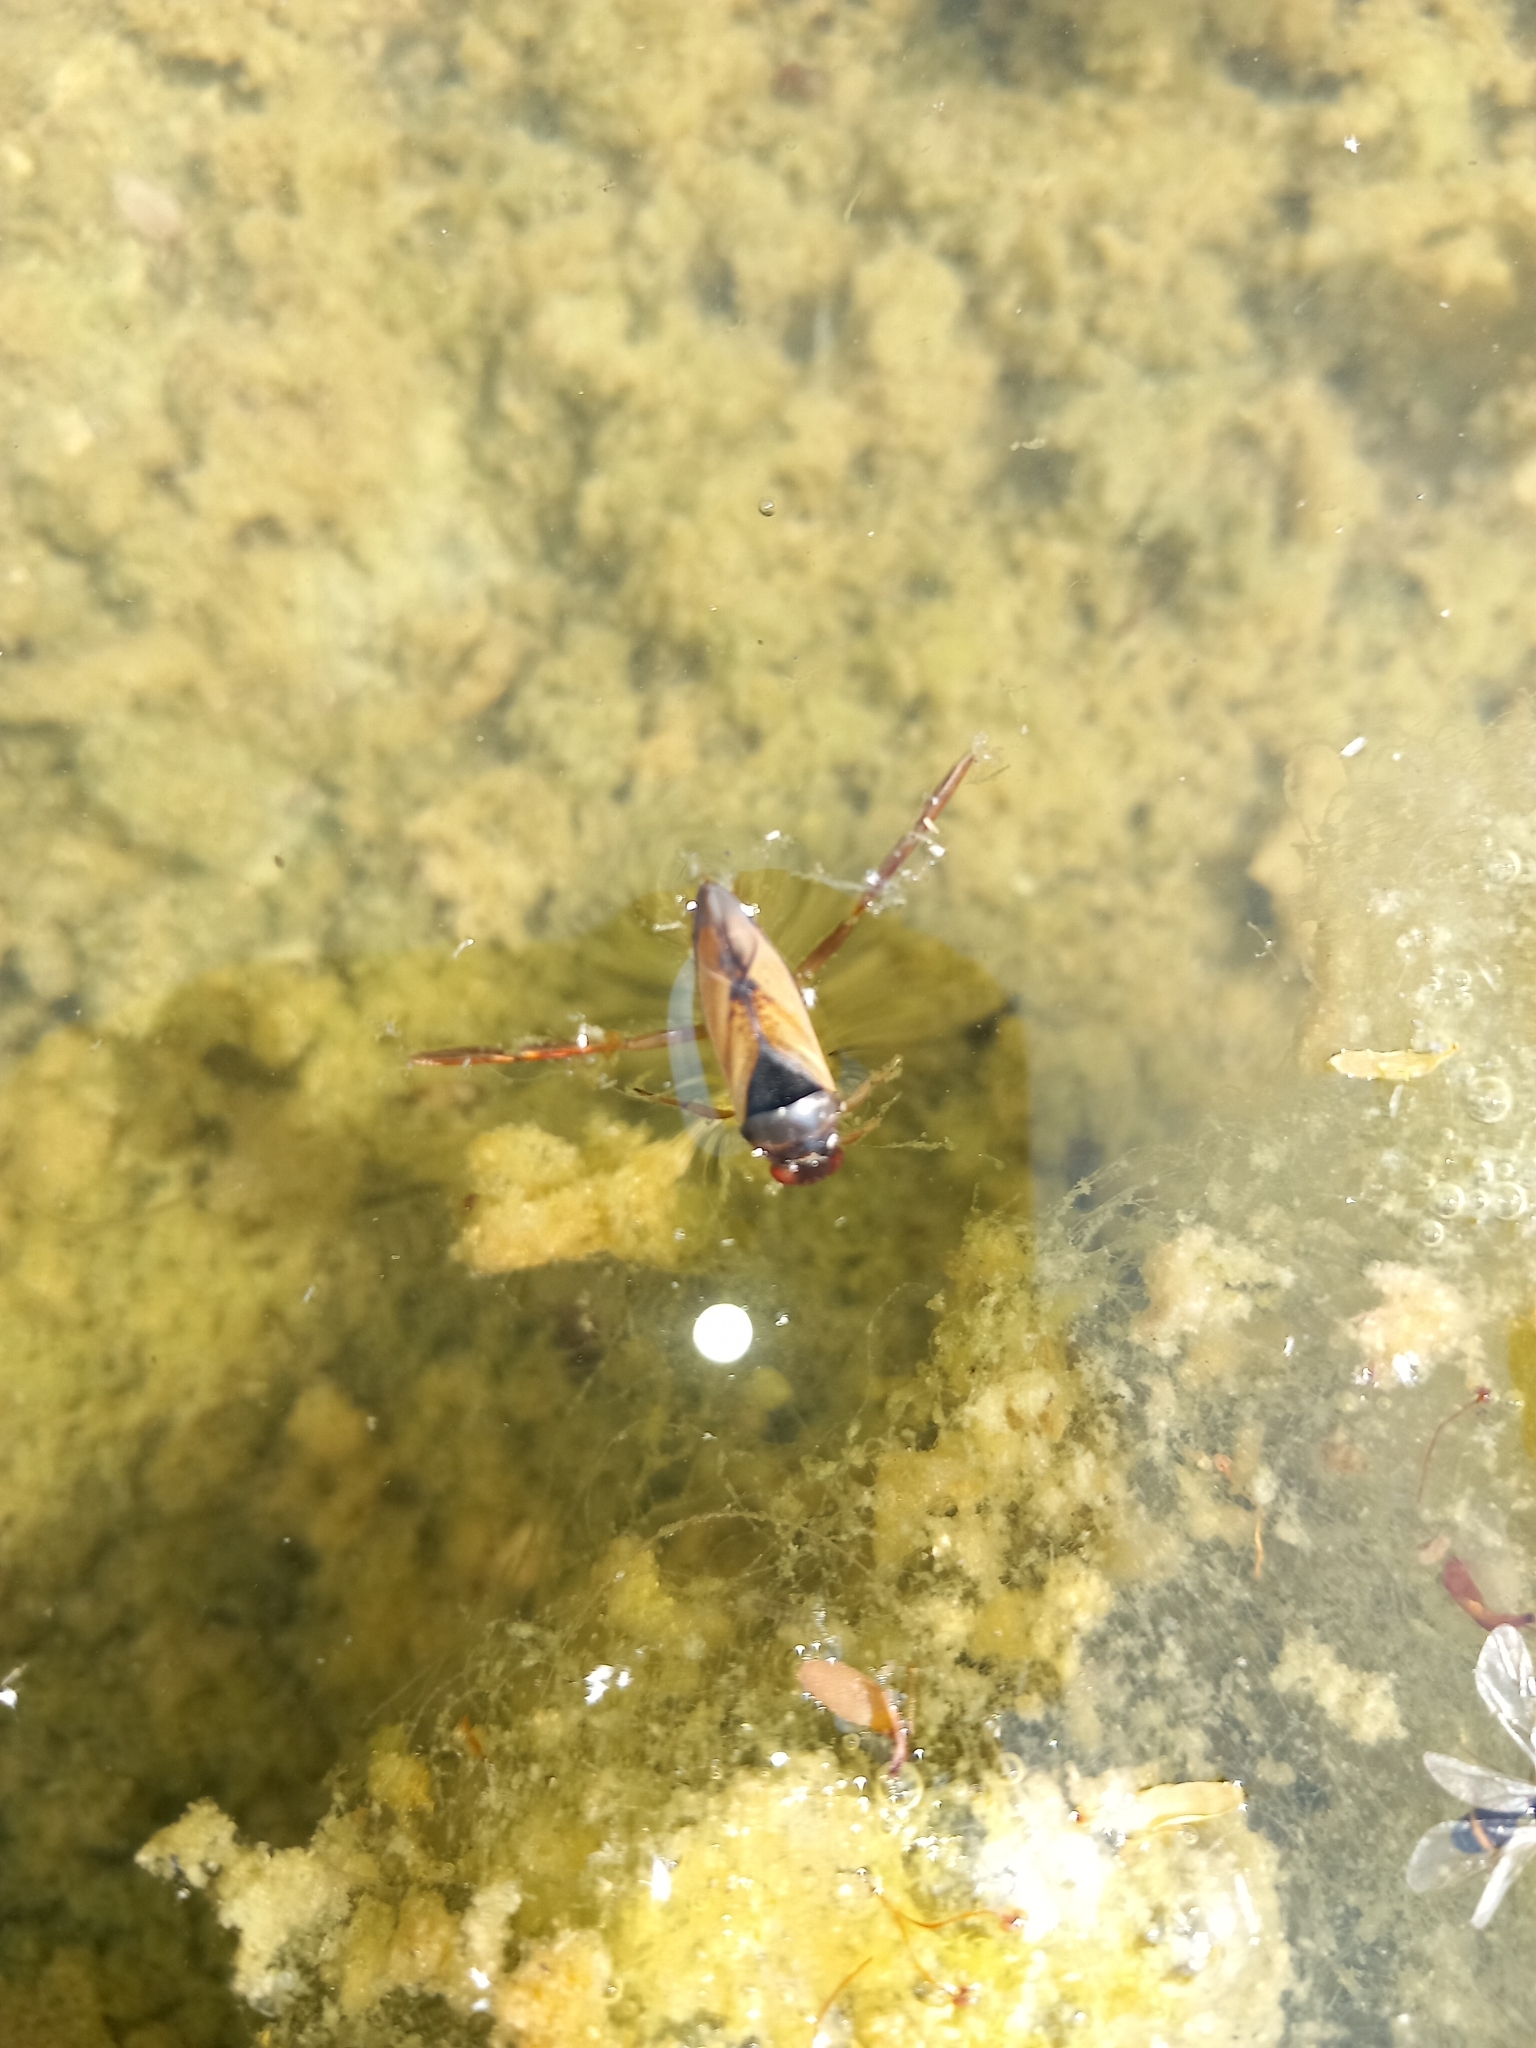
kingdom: Animalia
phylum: Arthropoda
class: Insecta
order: Hemiptera
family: Notonectidae
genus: Notonecta
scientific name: Notonecta glauca
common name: Common water-boatman
